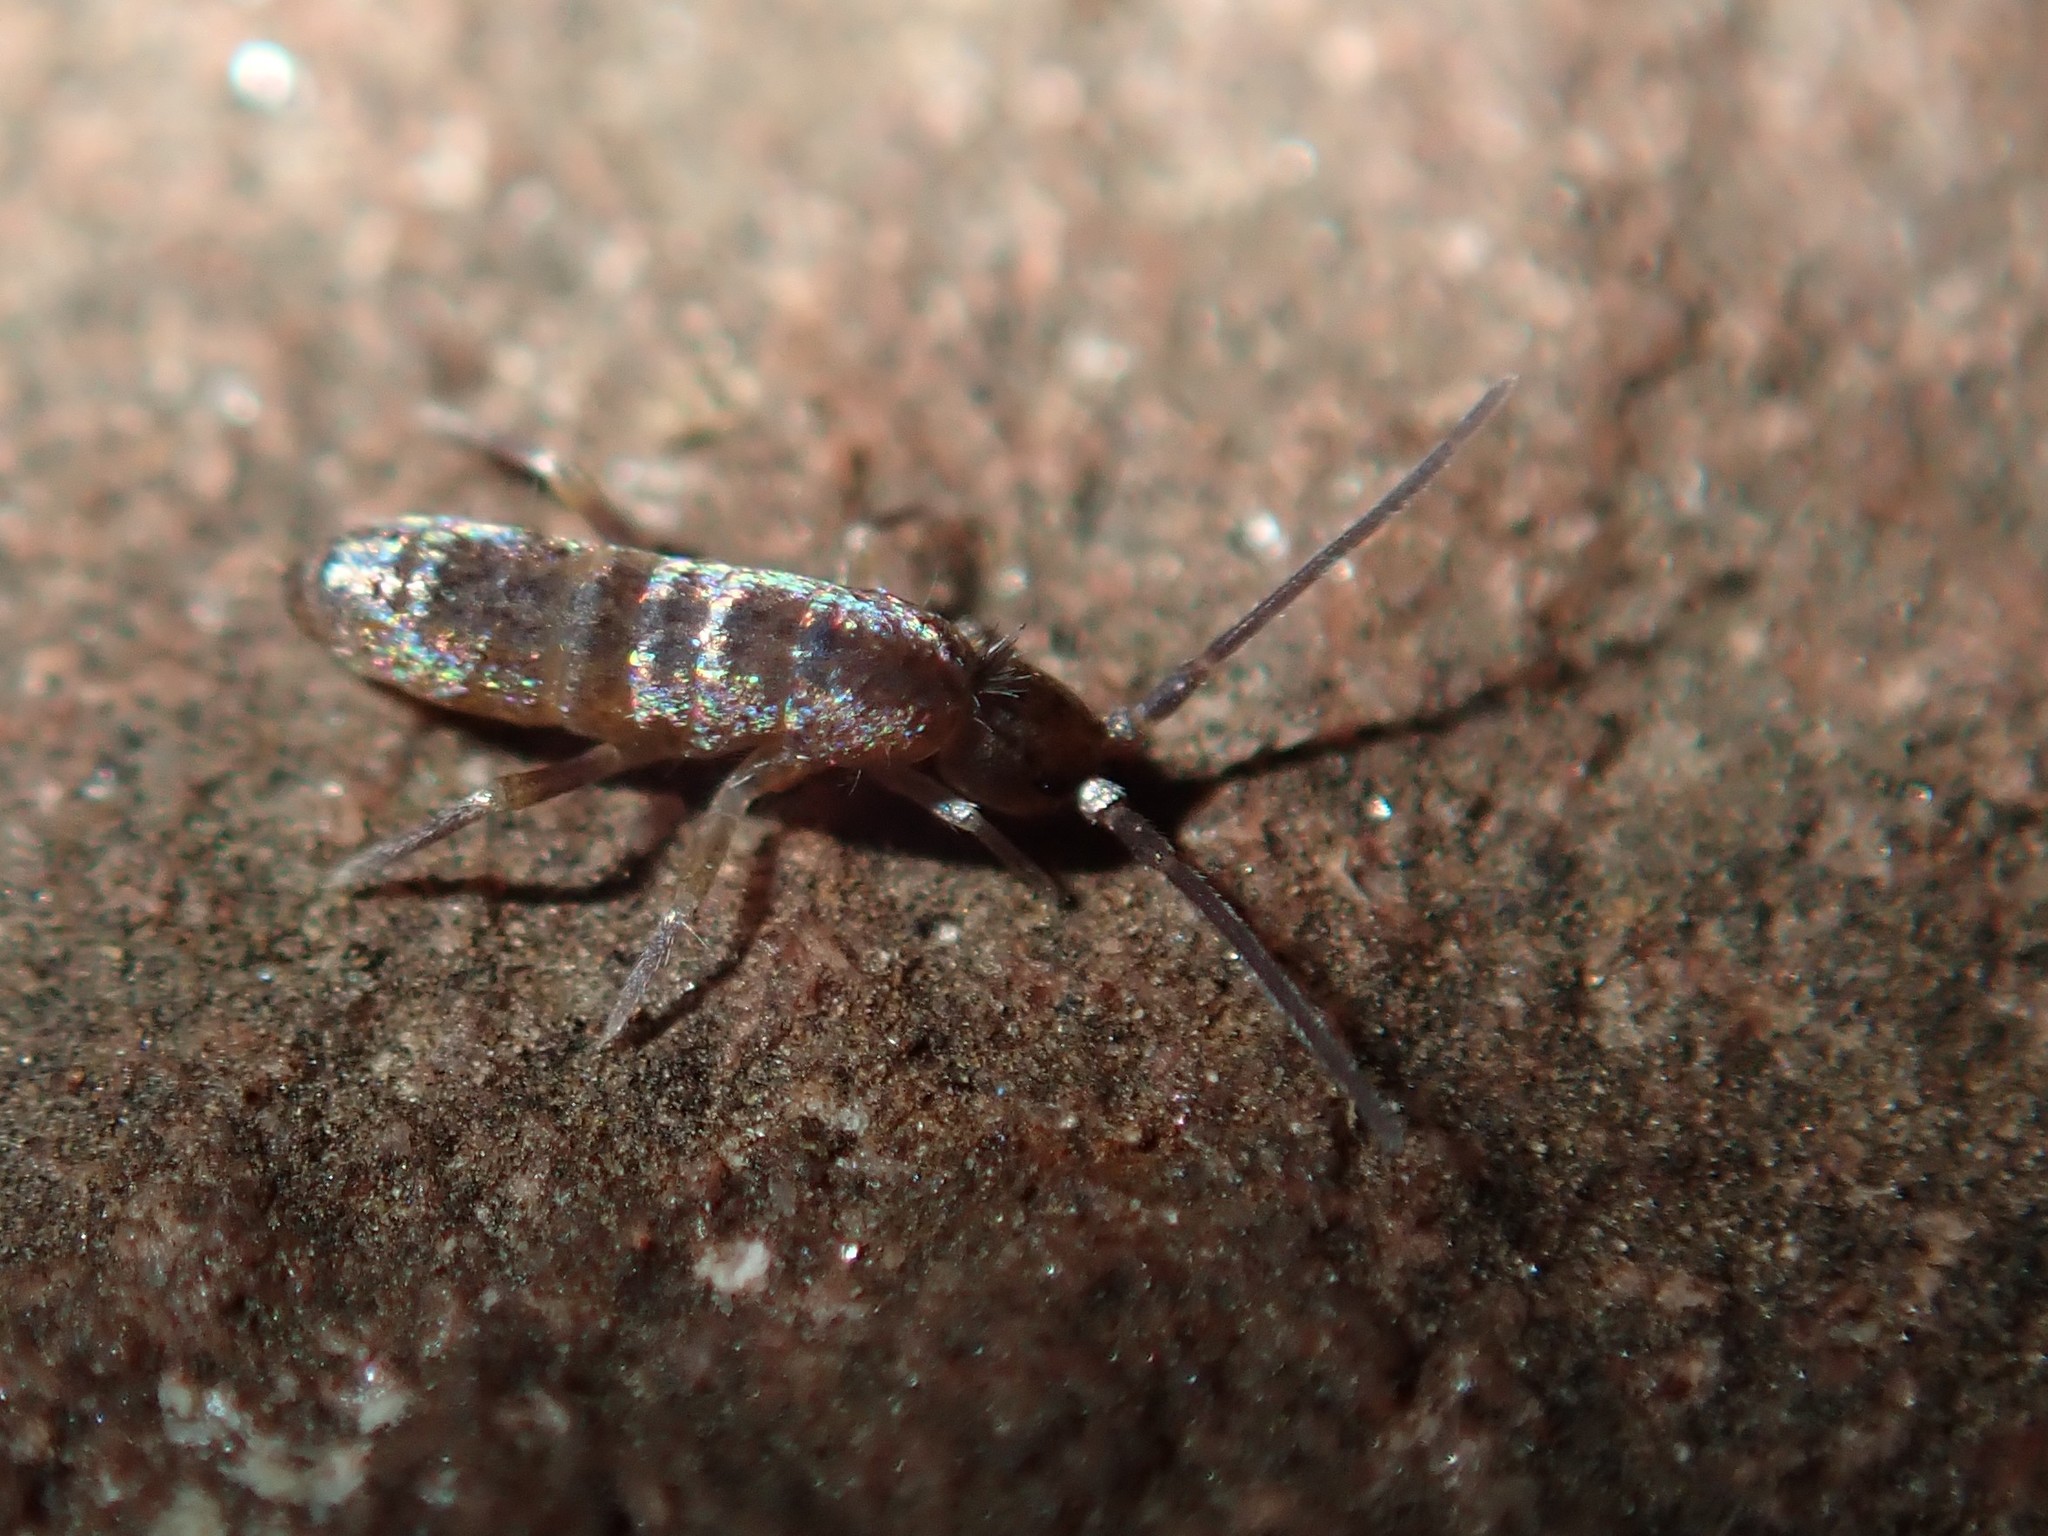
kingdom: Animalia
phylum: Arthropoda
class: Collembola
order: Entomobryomorpha
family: Tomoceridae
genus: Tomocerus
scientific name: Tomocerus vulgaris
